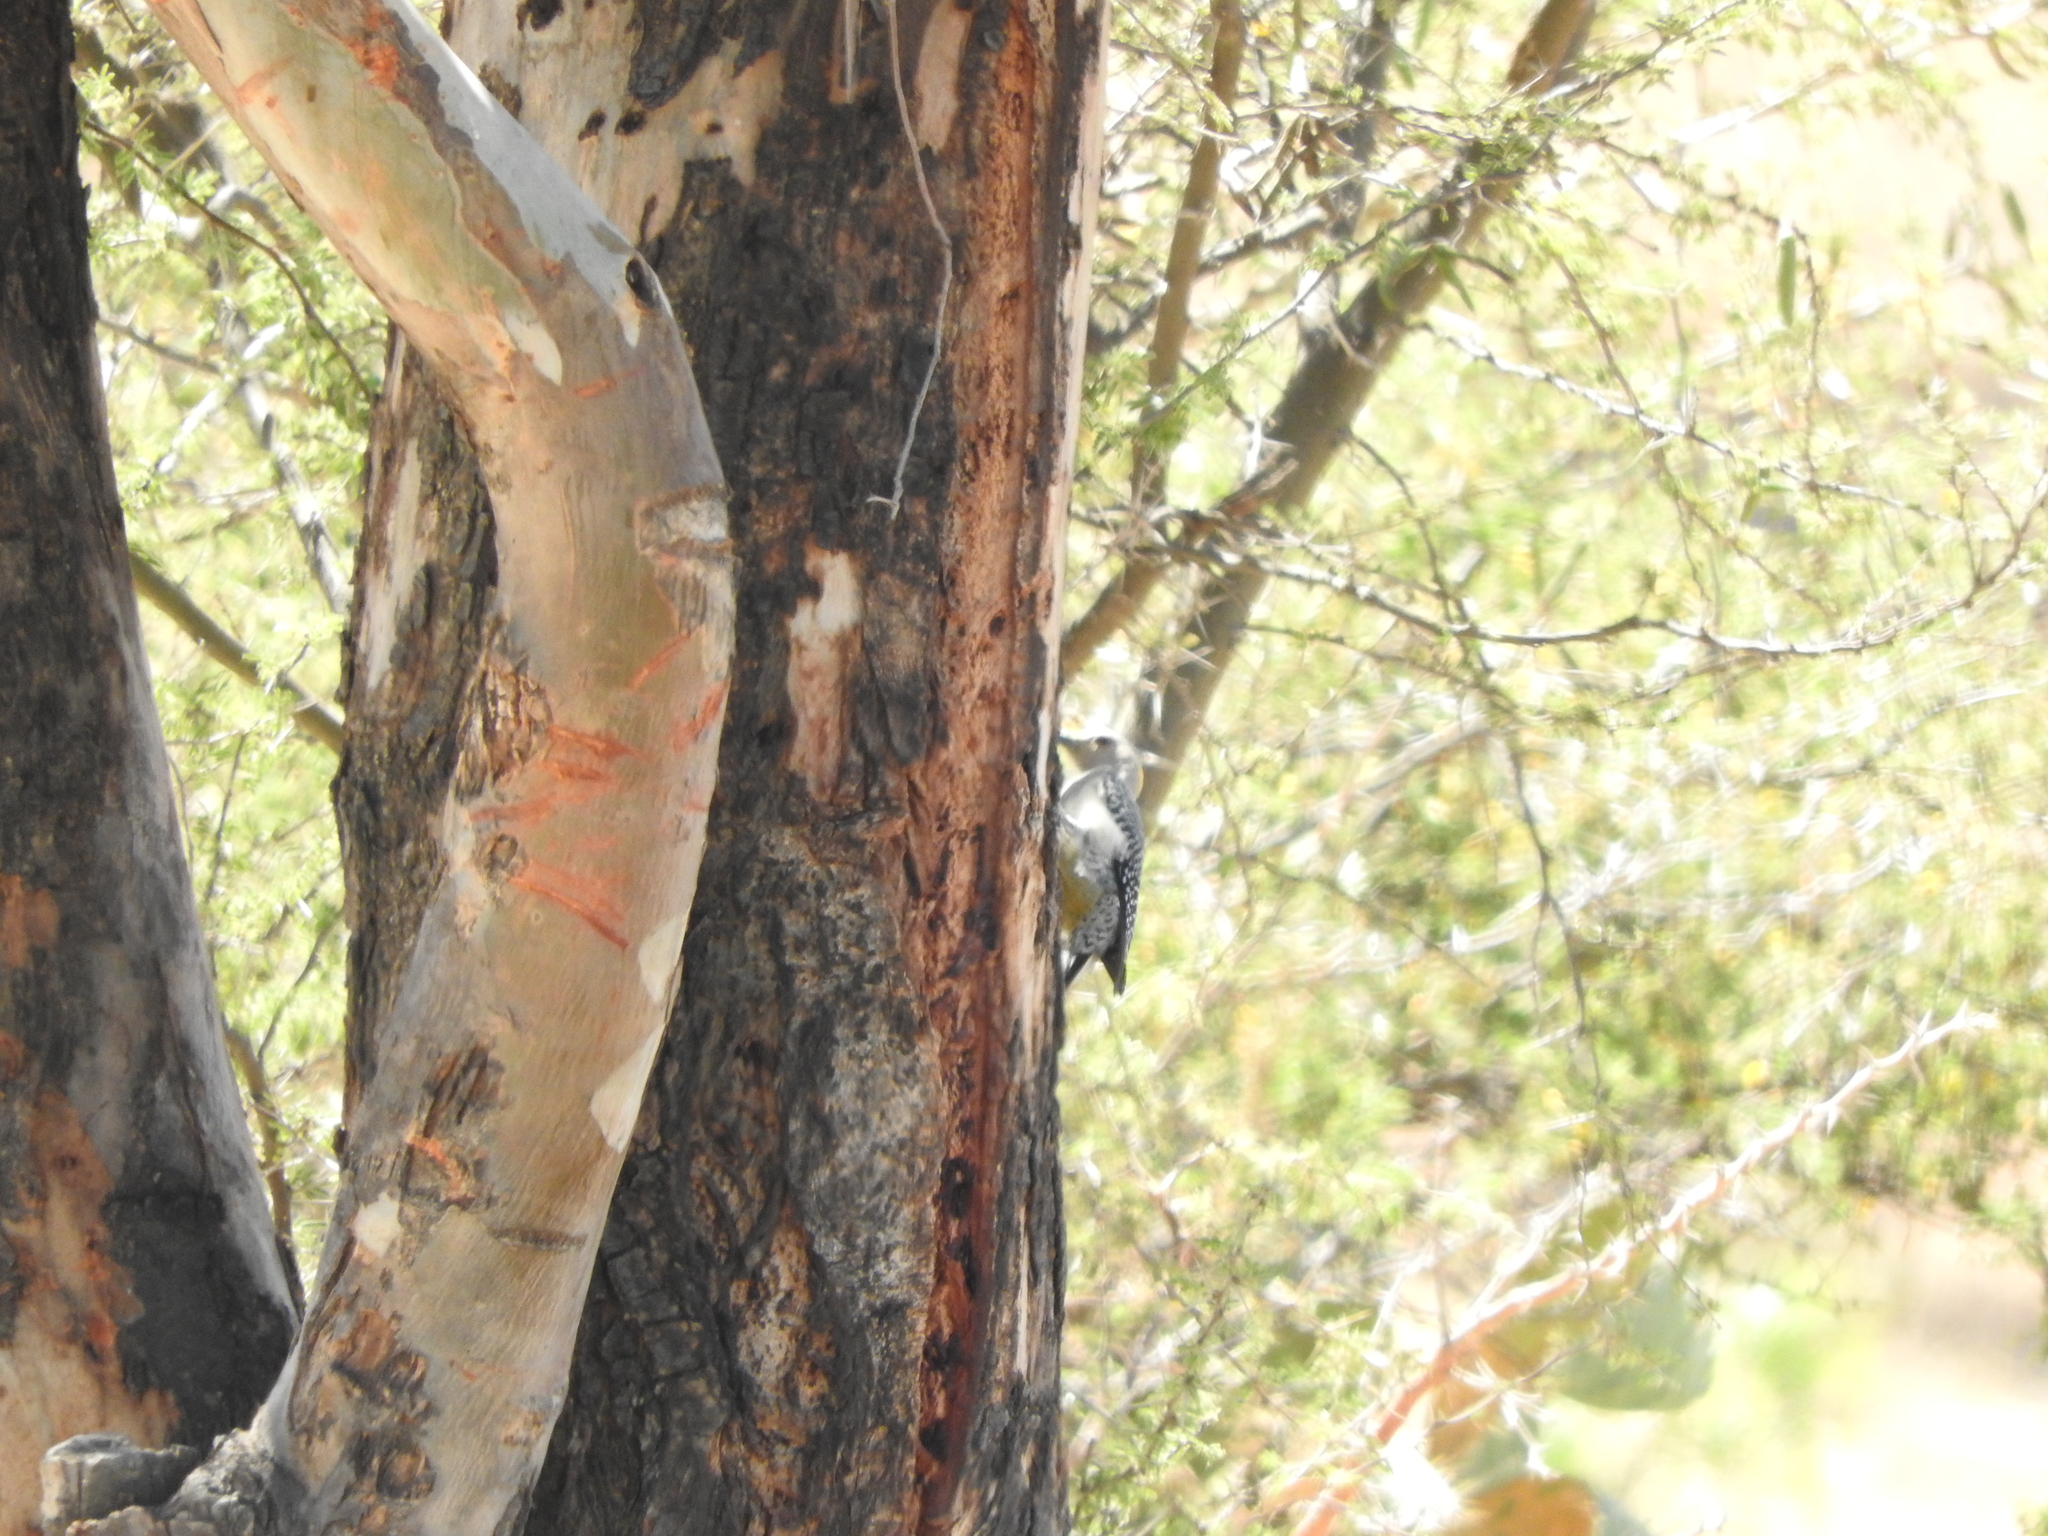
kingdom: Animalia
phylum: Chordata
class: Aves
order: Piciformes
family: Picidae
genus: Melanerpes
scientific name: Melanerpes aurifrons
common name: Golden-fronted woodpecker
